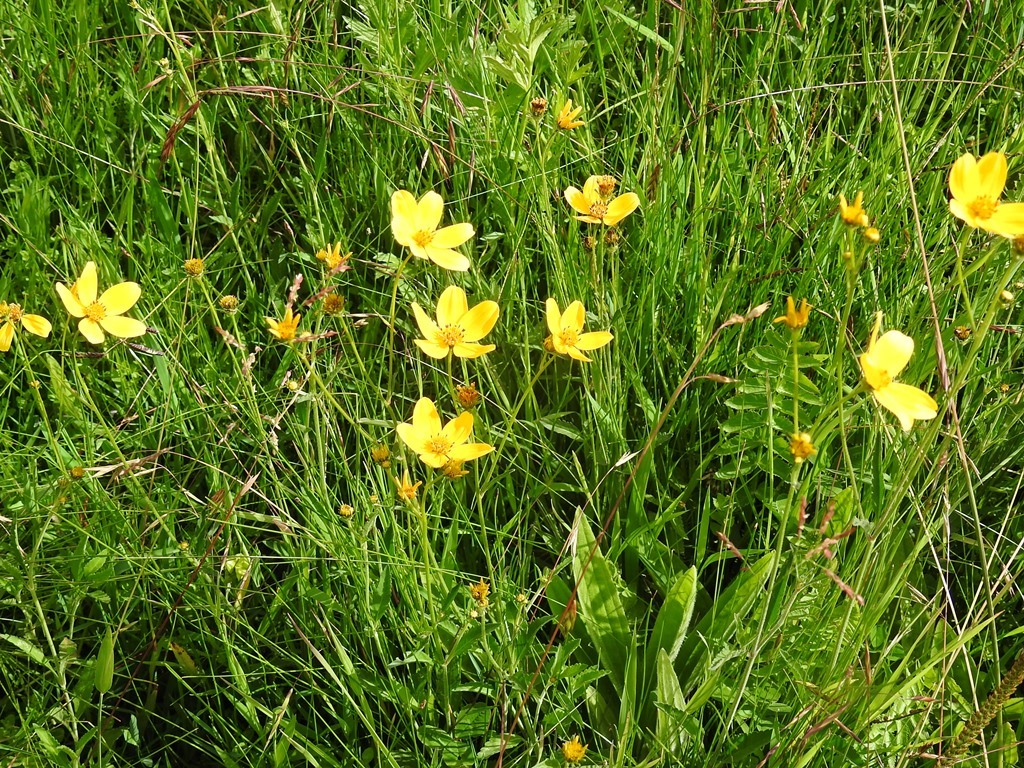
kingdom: Plantae
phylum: Tracheophyta
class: Magnoliopsida
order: Asterales
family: Asteraceae
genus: Bidens
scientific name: Bidens aurea
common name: Arizona beggar-ticks
